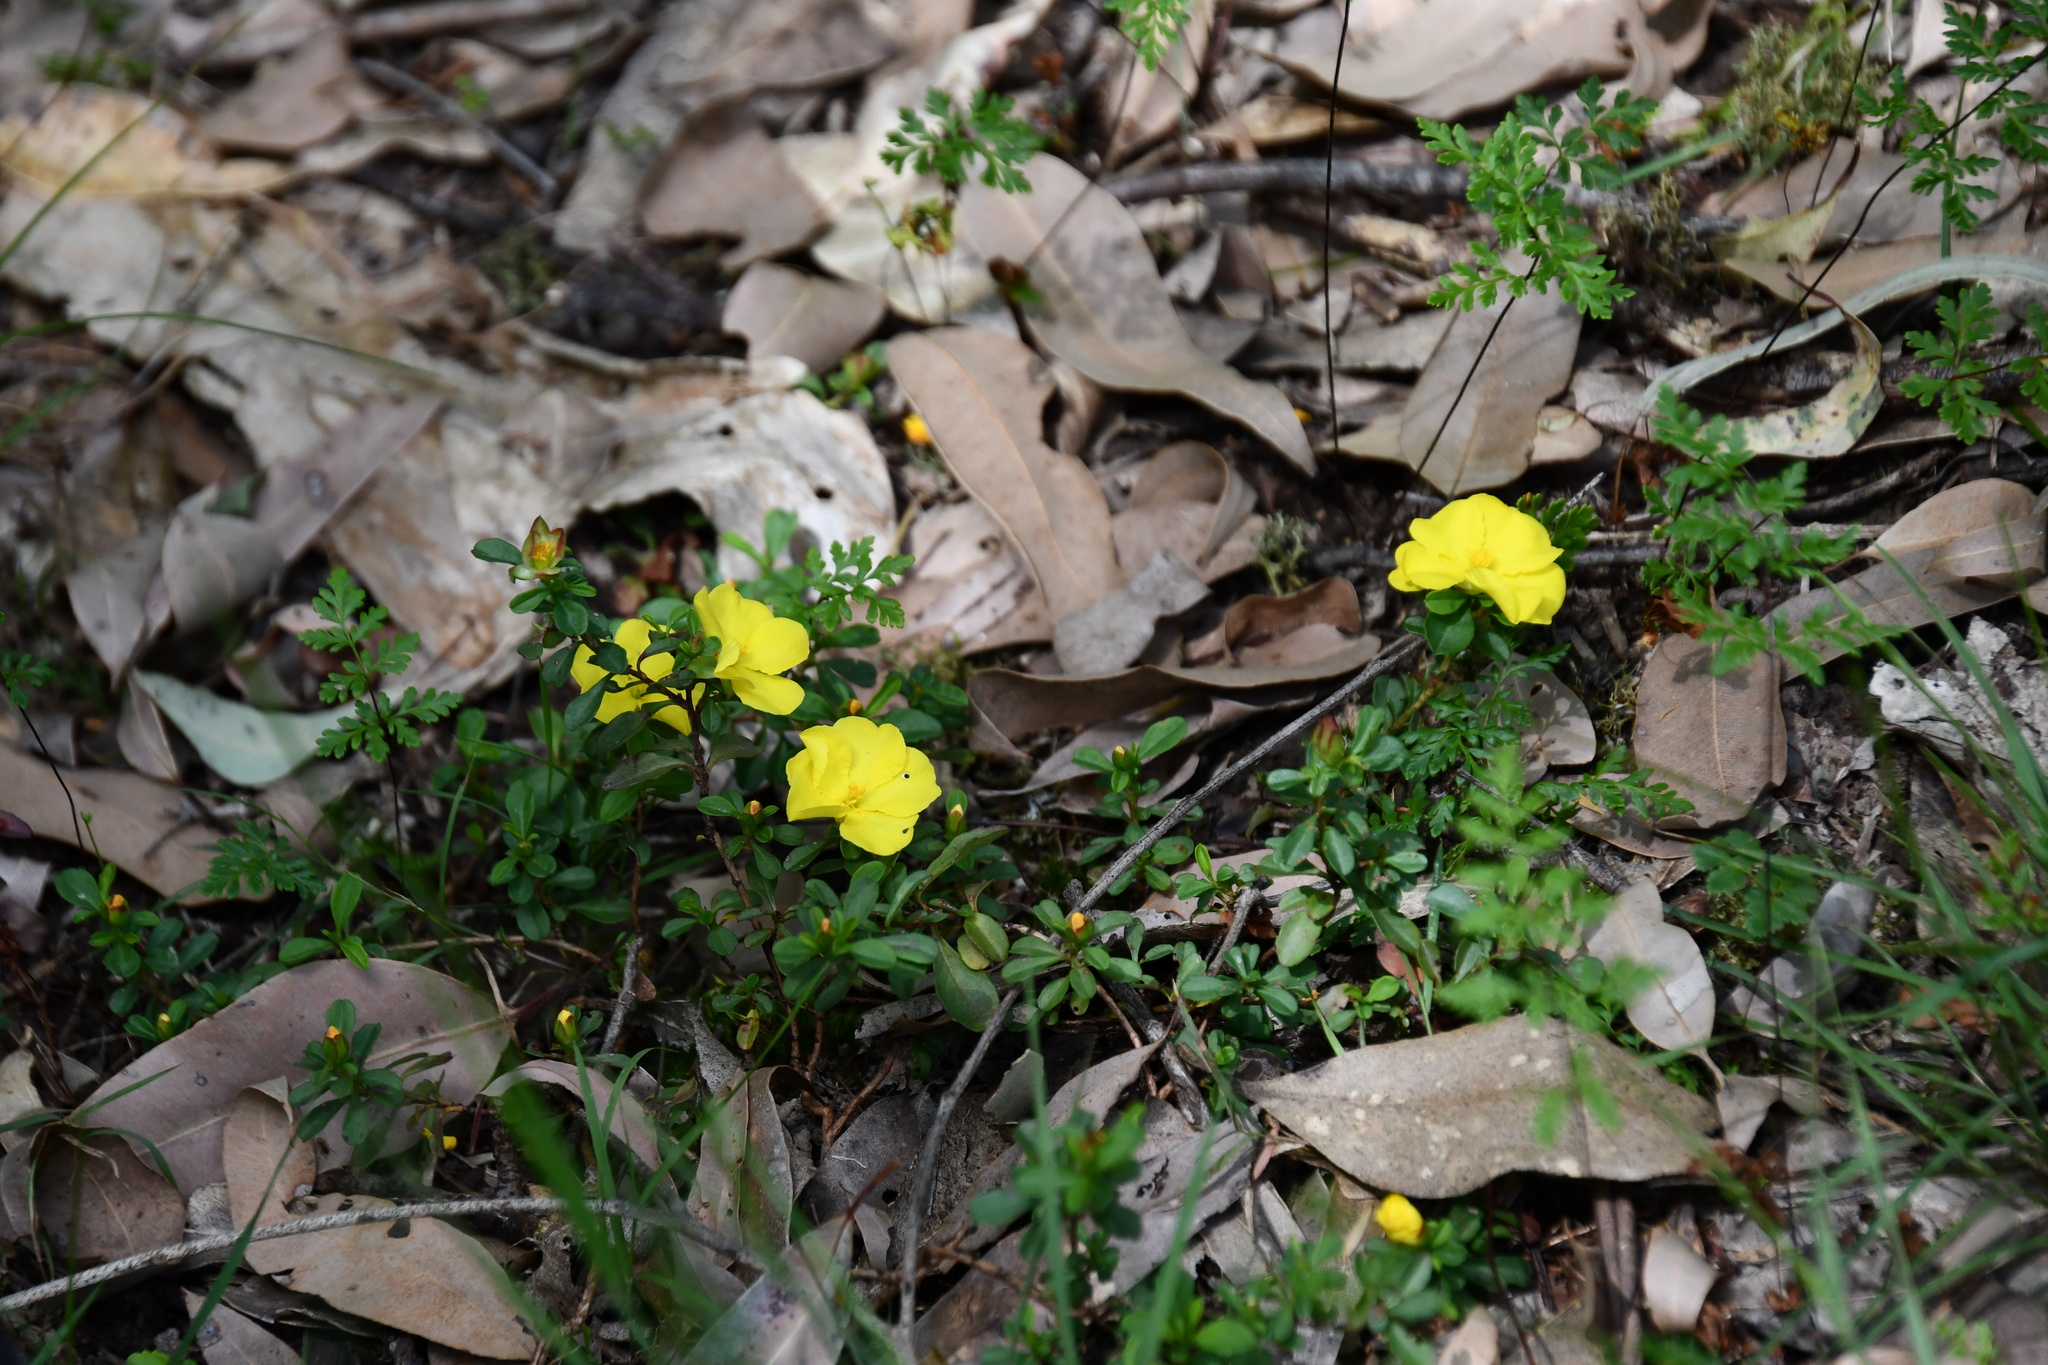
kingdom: Plantae
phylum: Tracheophyta
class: Magnoliopsida
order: Dilleniales
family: Dilleniaceae
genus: Hibbertia
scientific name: Hibbertia diffusa
